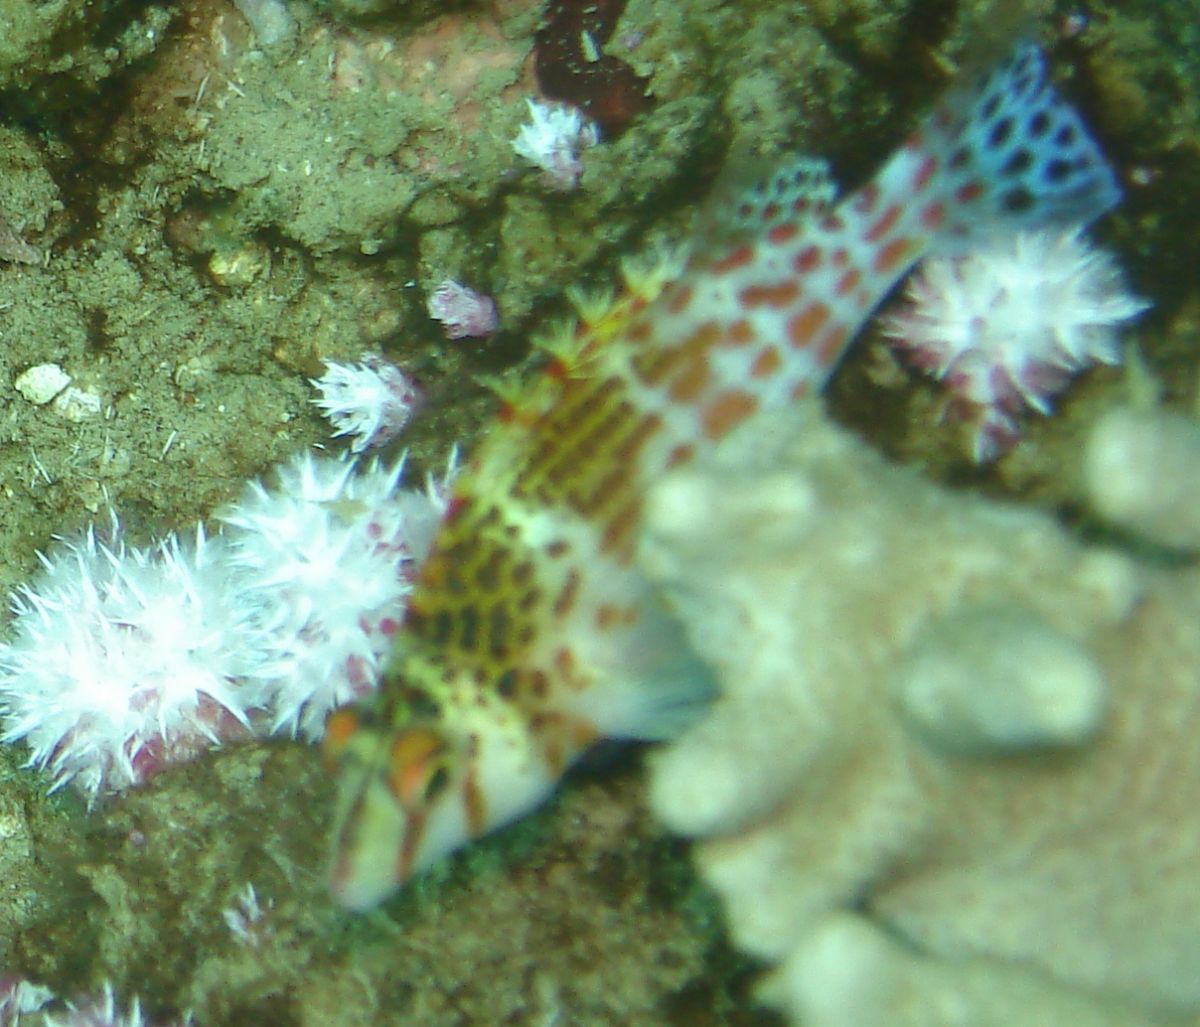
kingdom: Animalia
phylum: Chordata
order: Perciformes
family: Cirrhitidae
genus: Cirrhitichthys
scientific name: Cirrhitichthys falco
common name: Coral hawkfish
